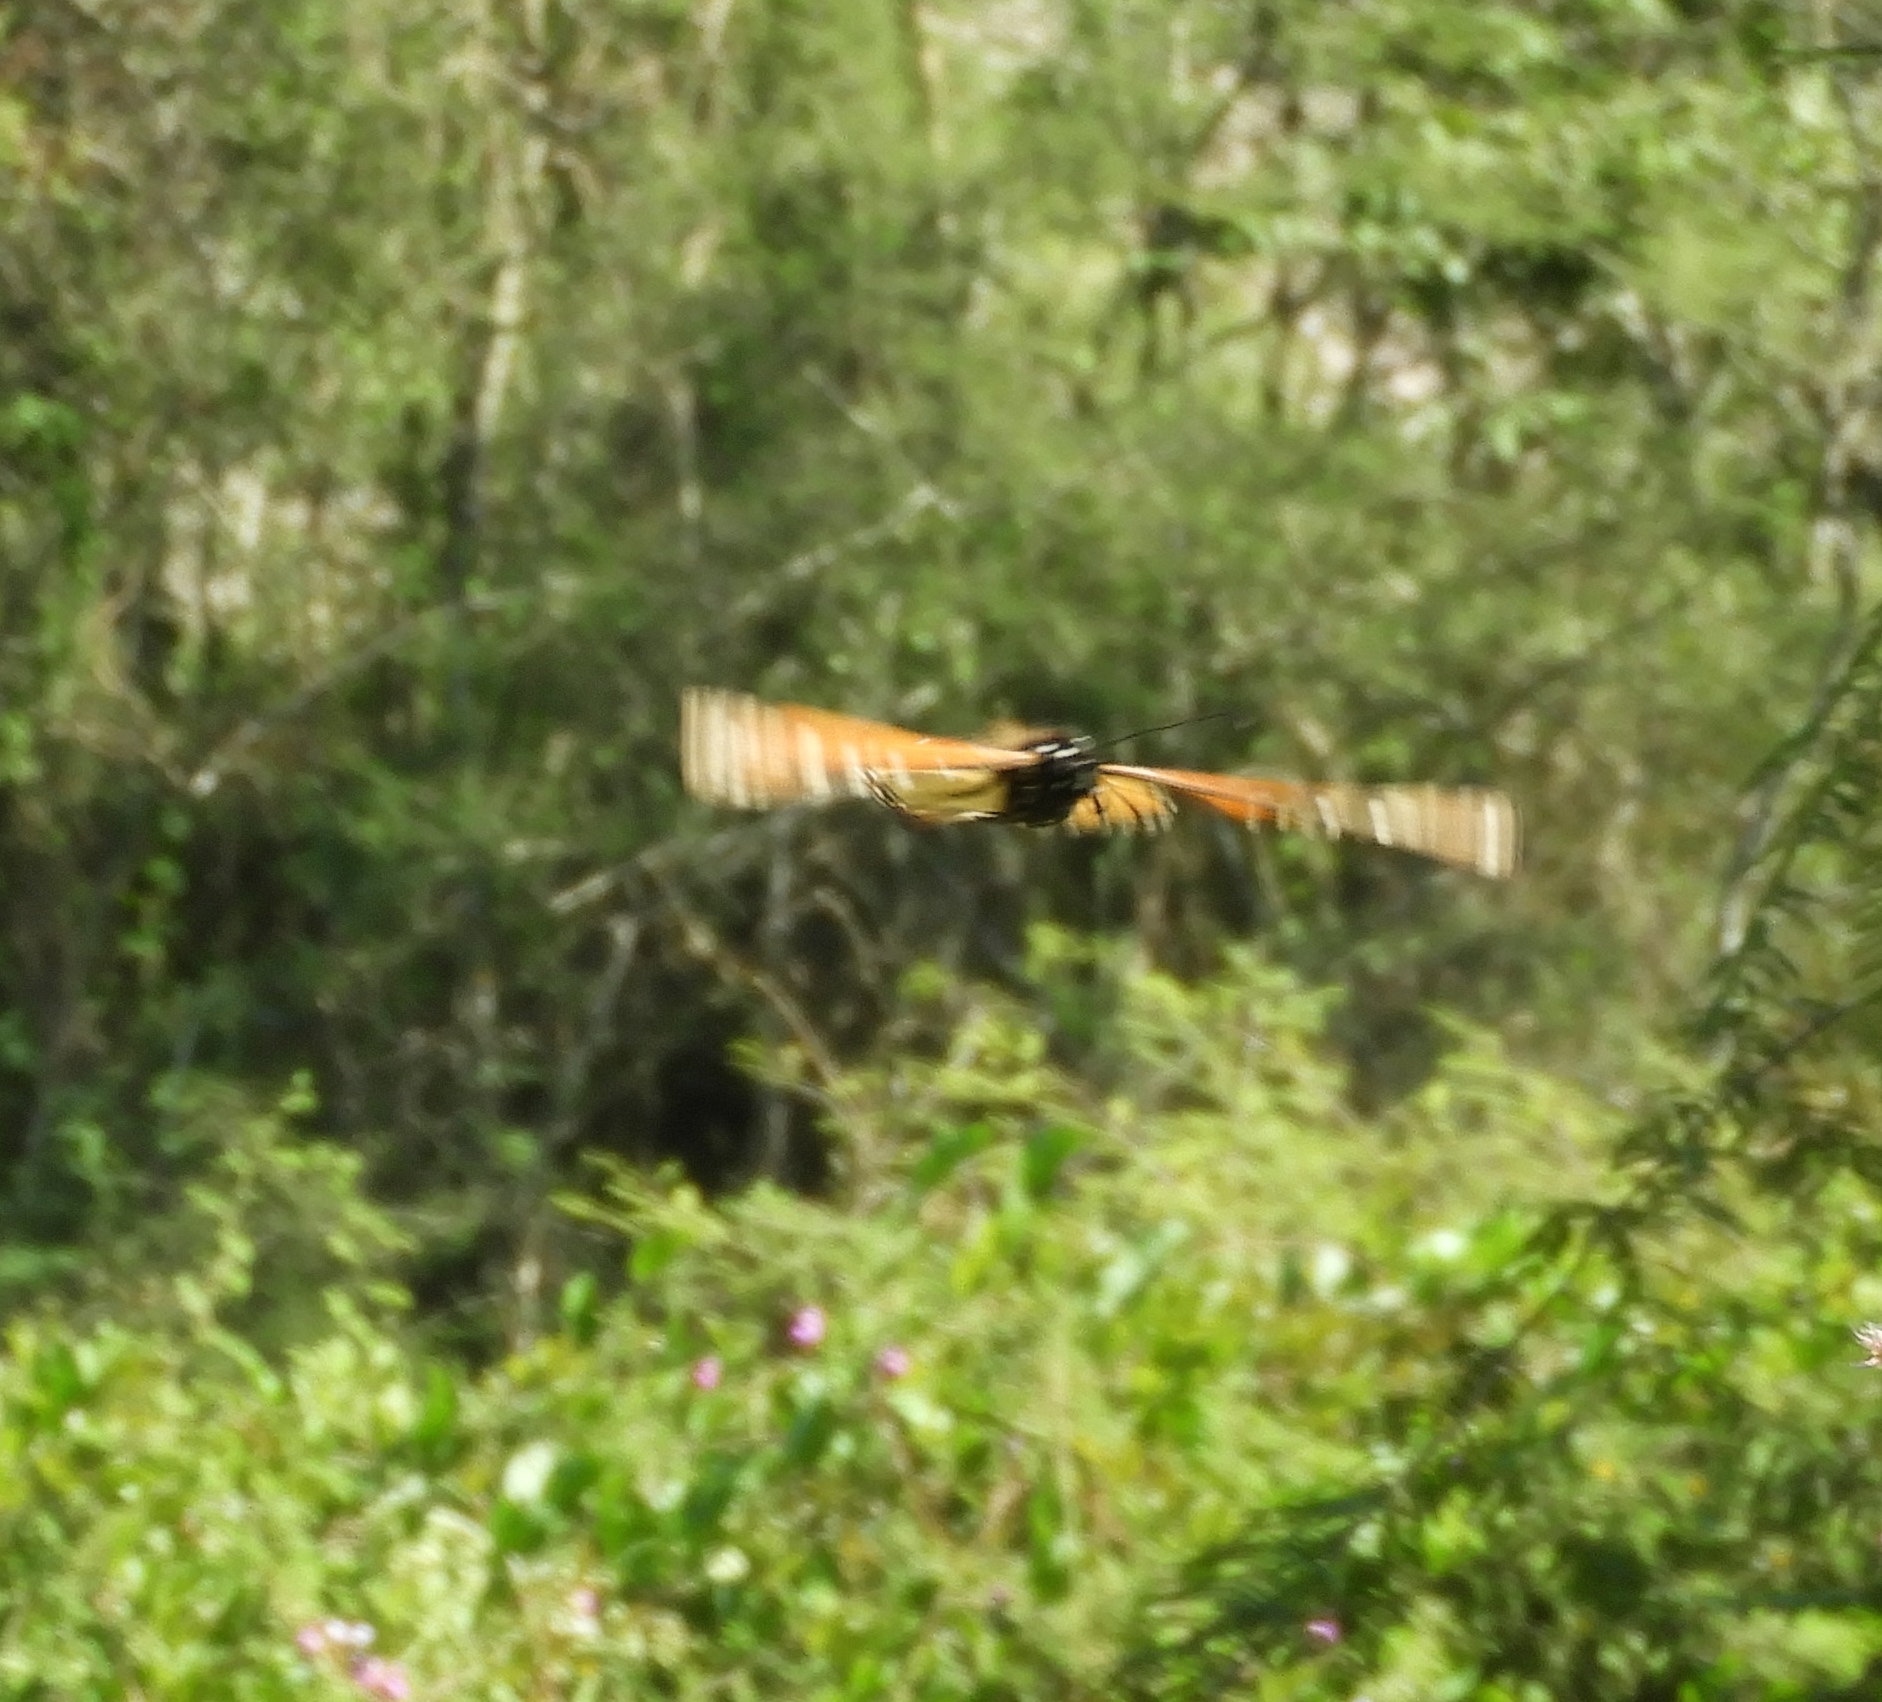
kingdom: Animalia
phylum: Arthropoda
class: Insecta
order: Lepidoptera
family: Nymphalidae
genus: Danaus
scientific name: Danaus plexippus
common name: Monarch
